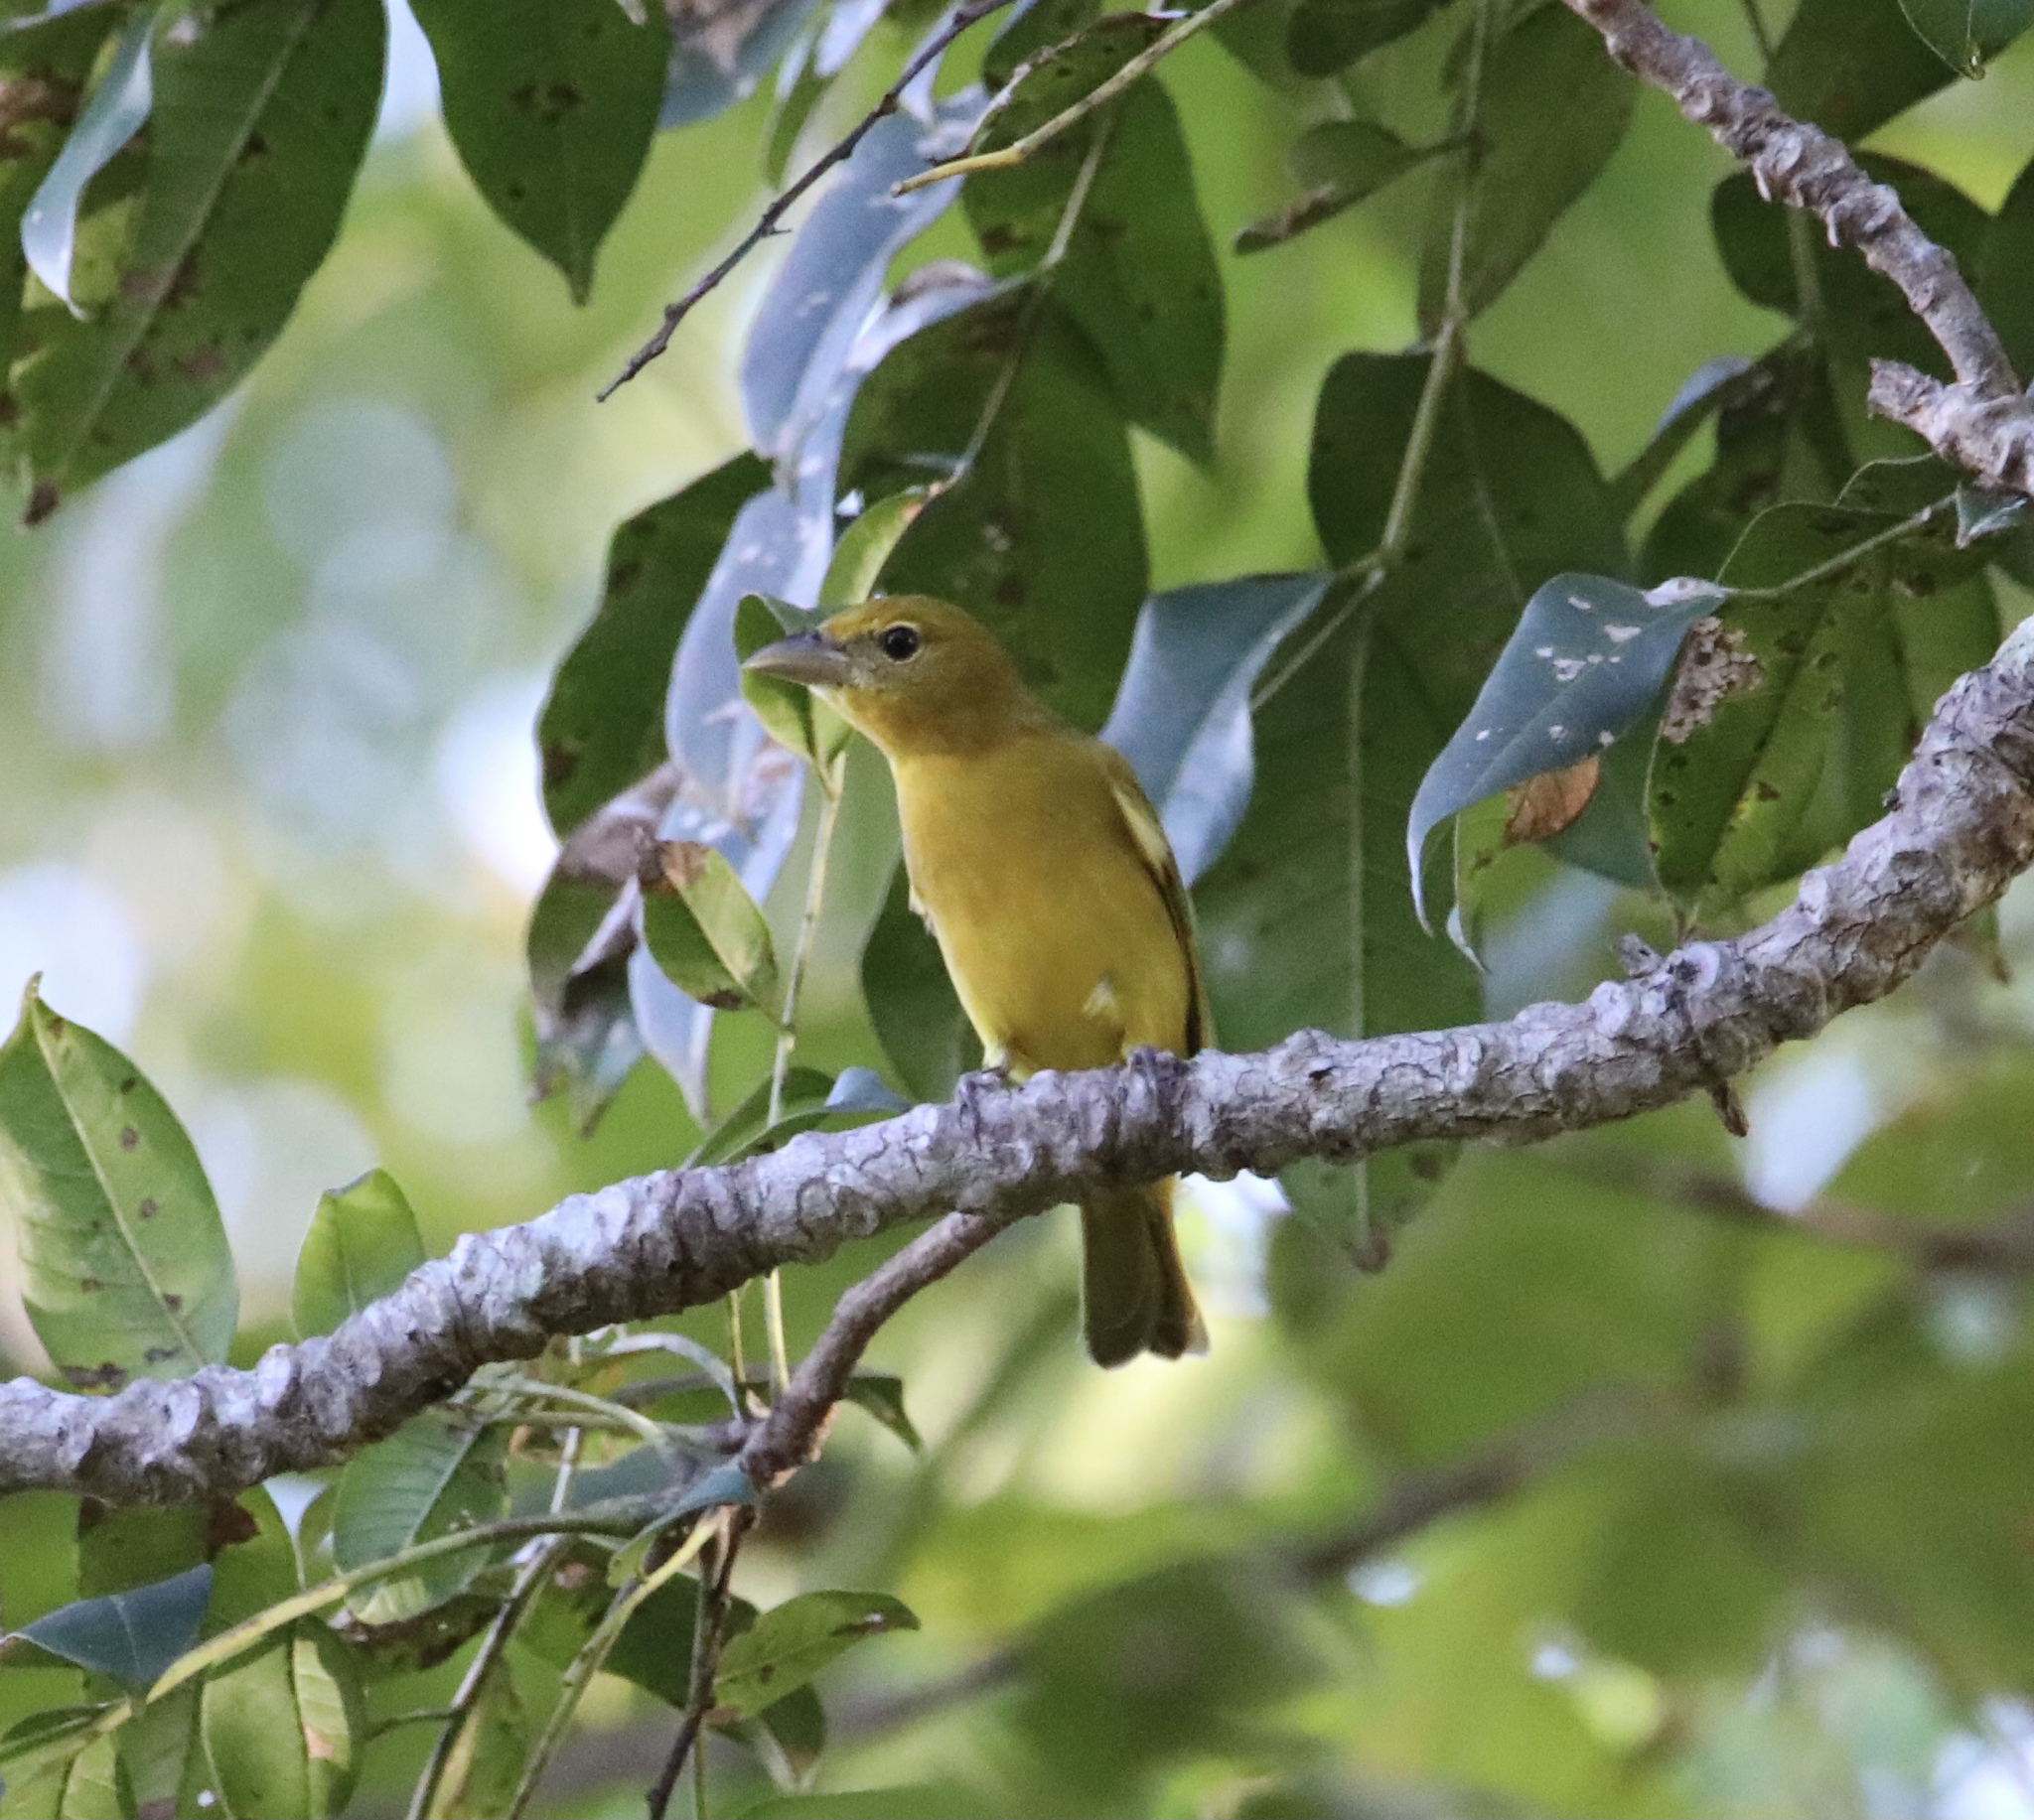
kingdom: Animalia
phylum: Chordata
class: Aves
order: Passeriformes
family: Cardinalidae
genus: Piranga
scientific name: Piranga rubra
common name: Summer tanager
